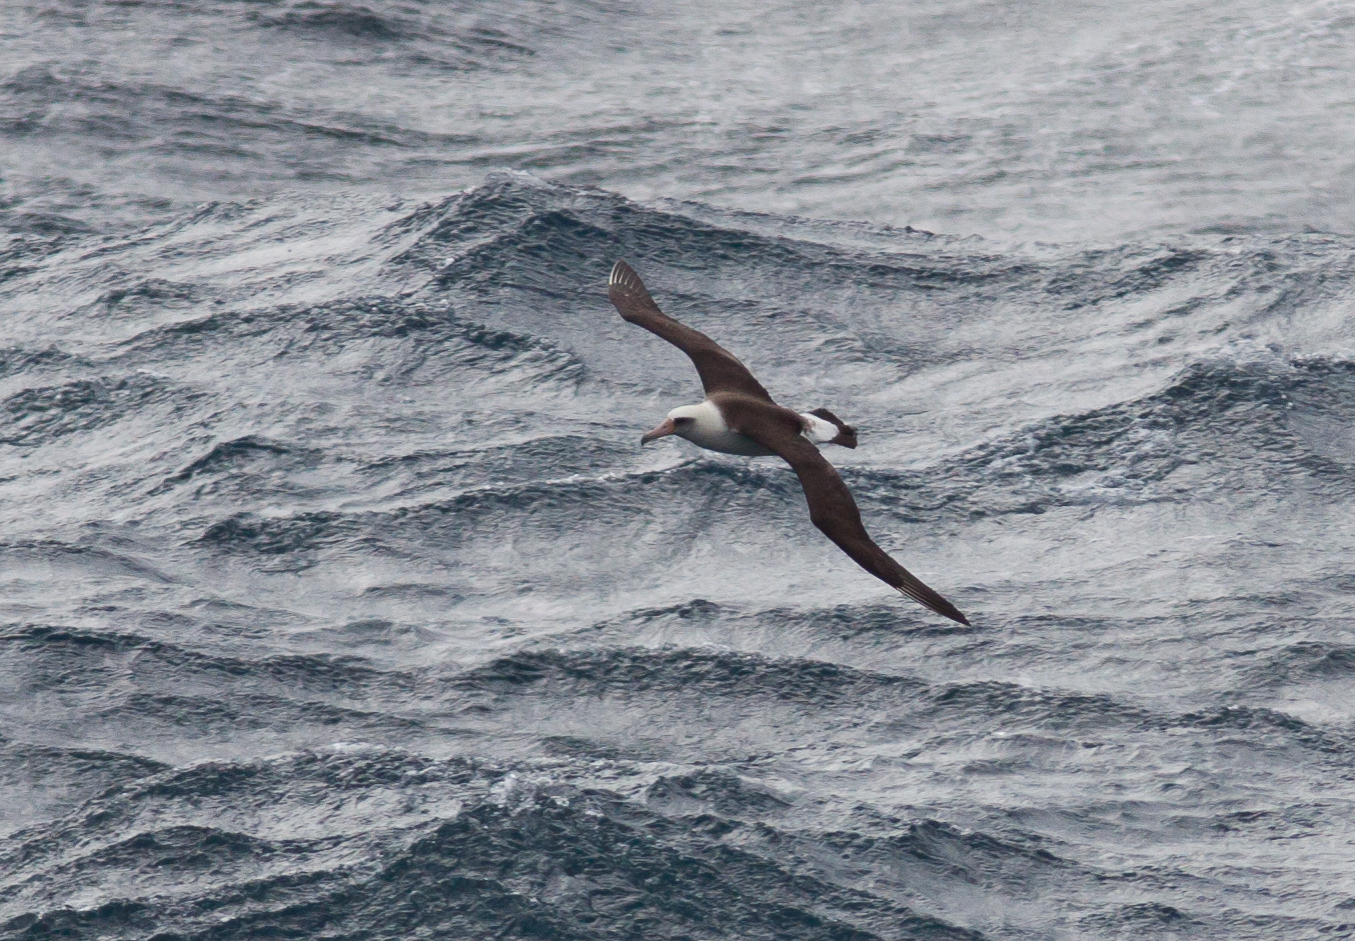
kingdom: Animalia
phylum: Chordata
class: Aves
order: Procellariiformes
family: Diomedeidae
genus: Phoebastria
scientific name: Phoebastria immutabilis
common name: Laysan albatross
